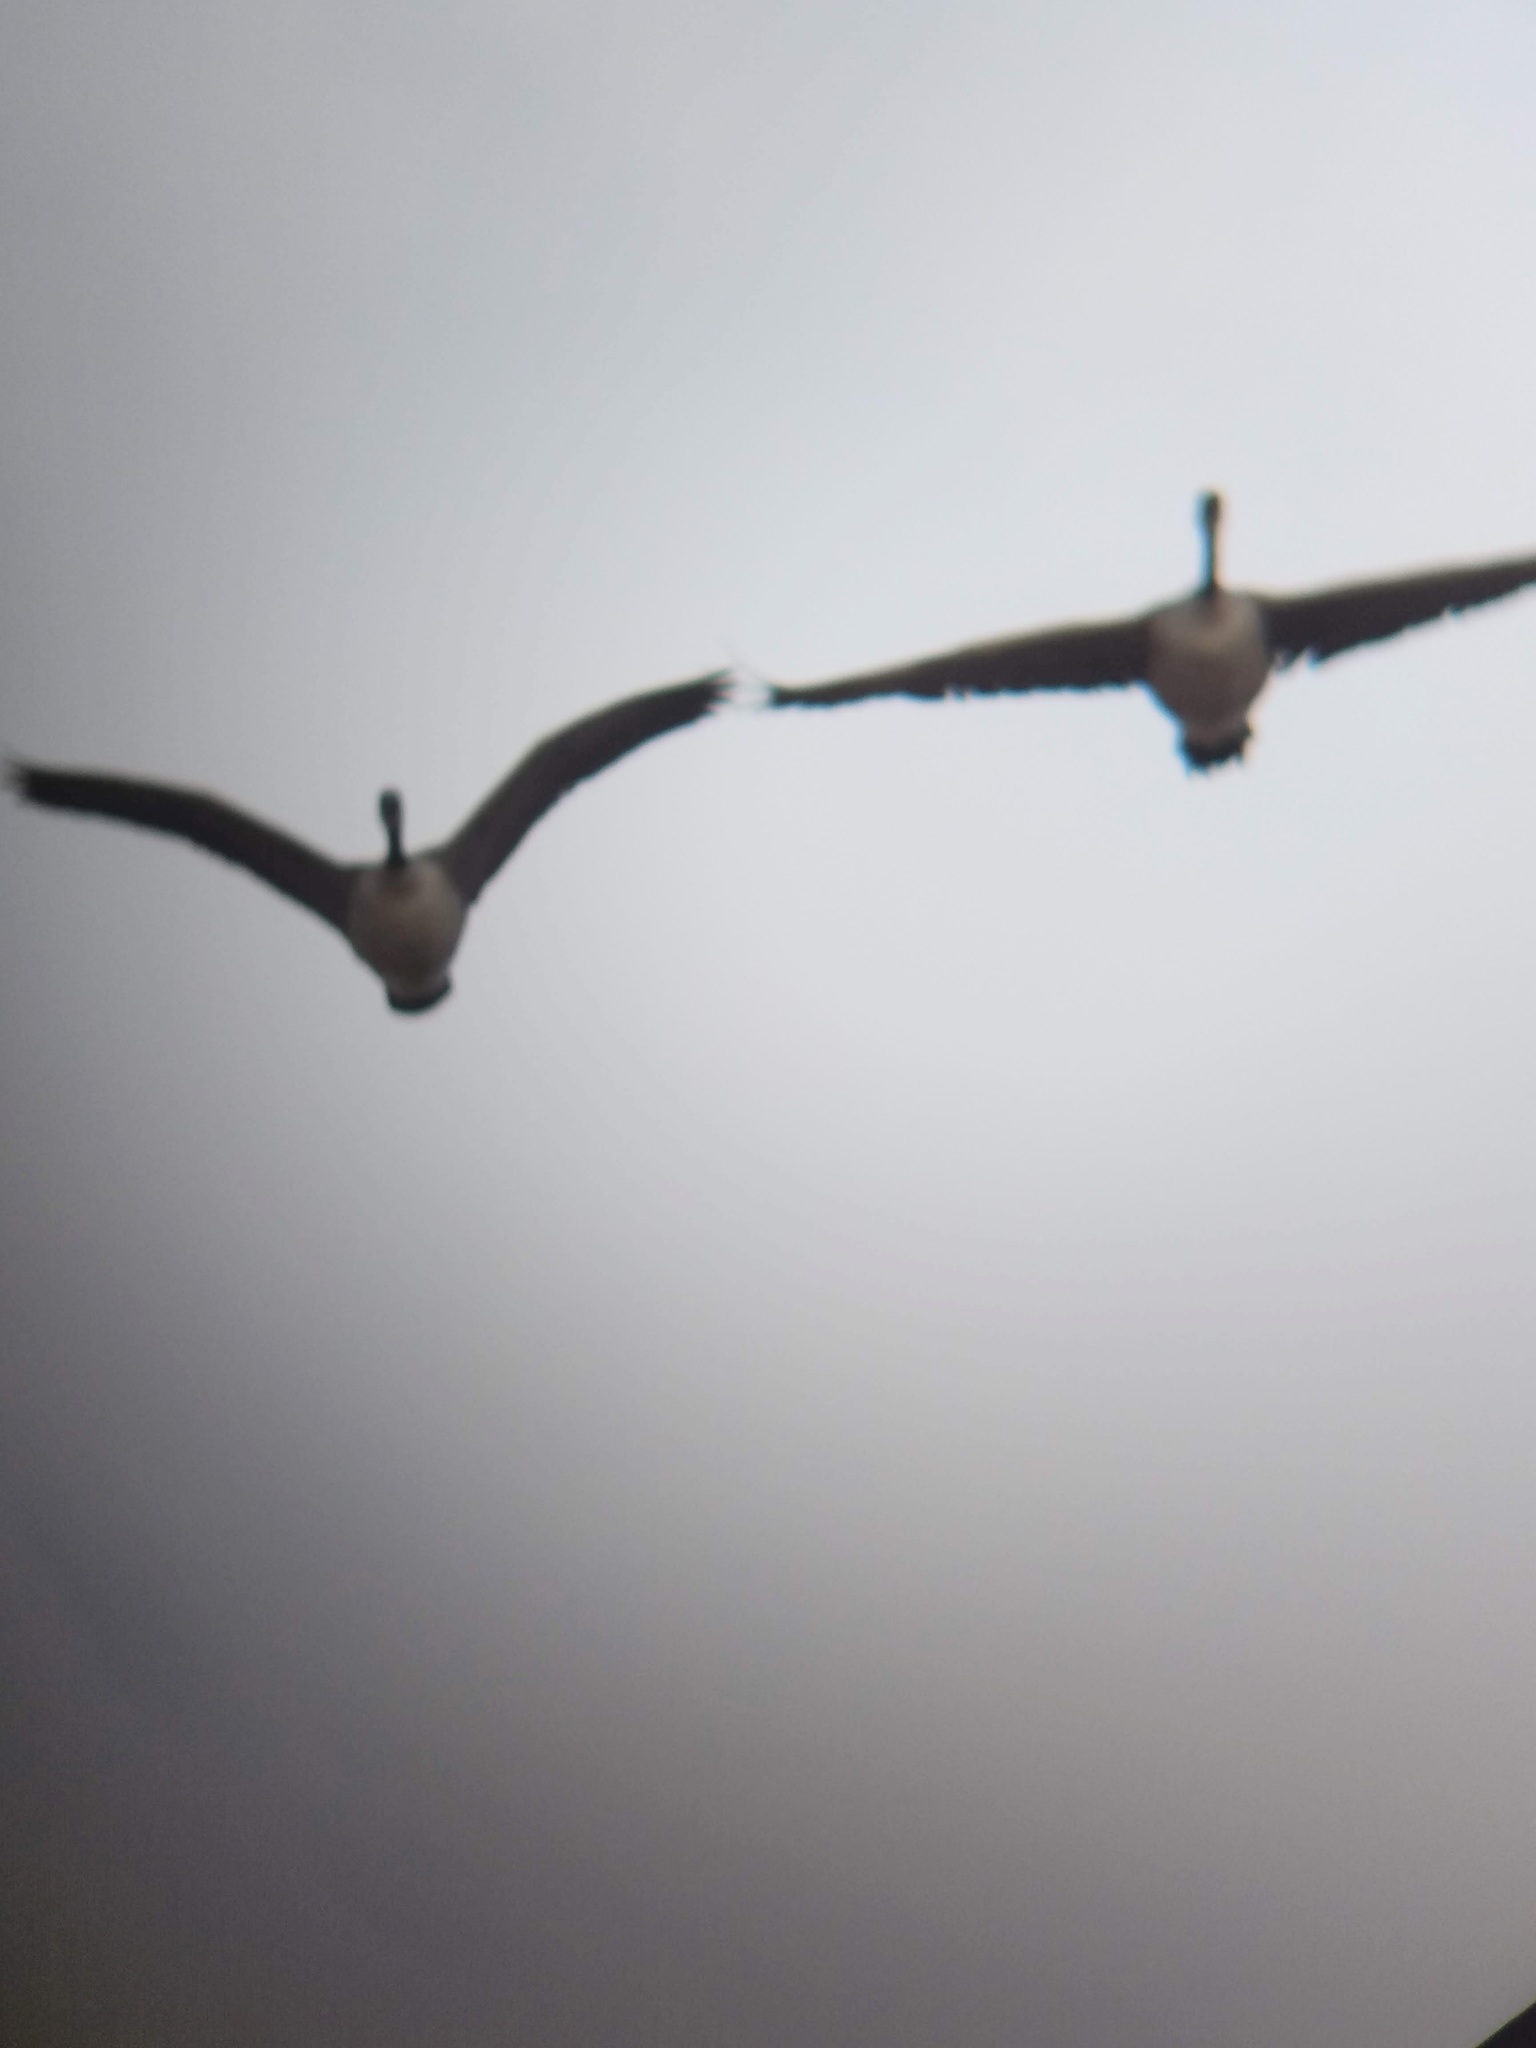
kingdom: Animalia
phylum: Chordata
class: Aves
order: Anseriformes
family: Anatidae
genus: Branta
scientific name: Branta canadensis
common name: Canada goose
